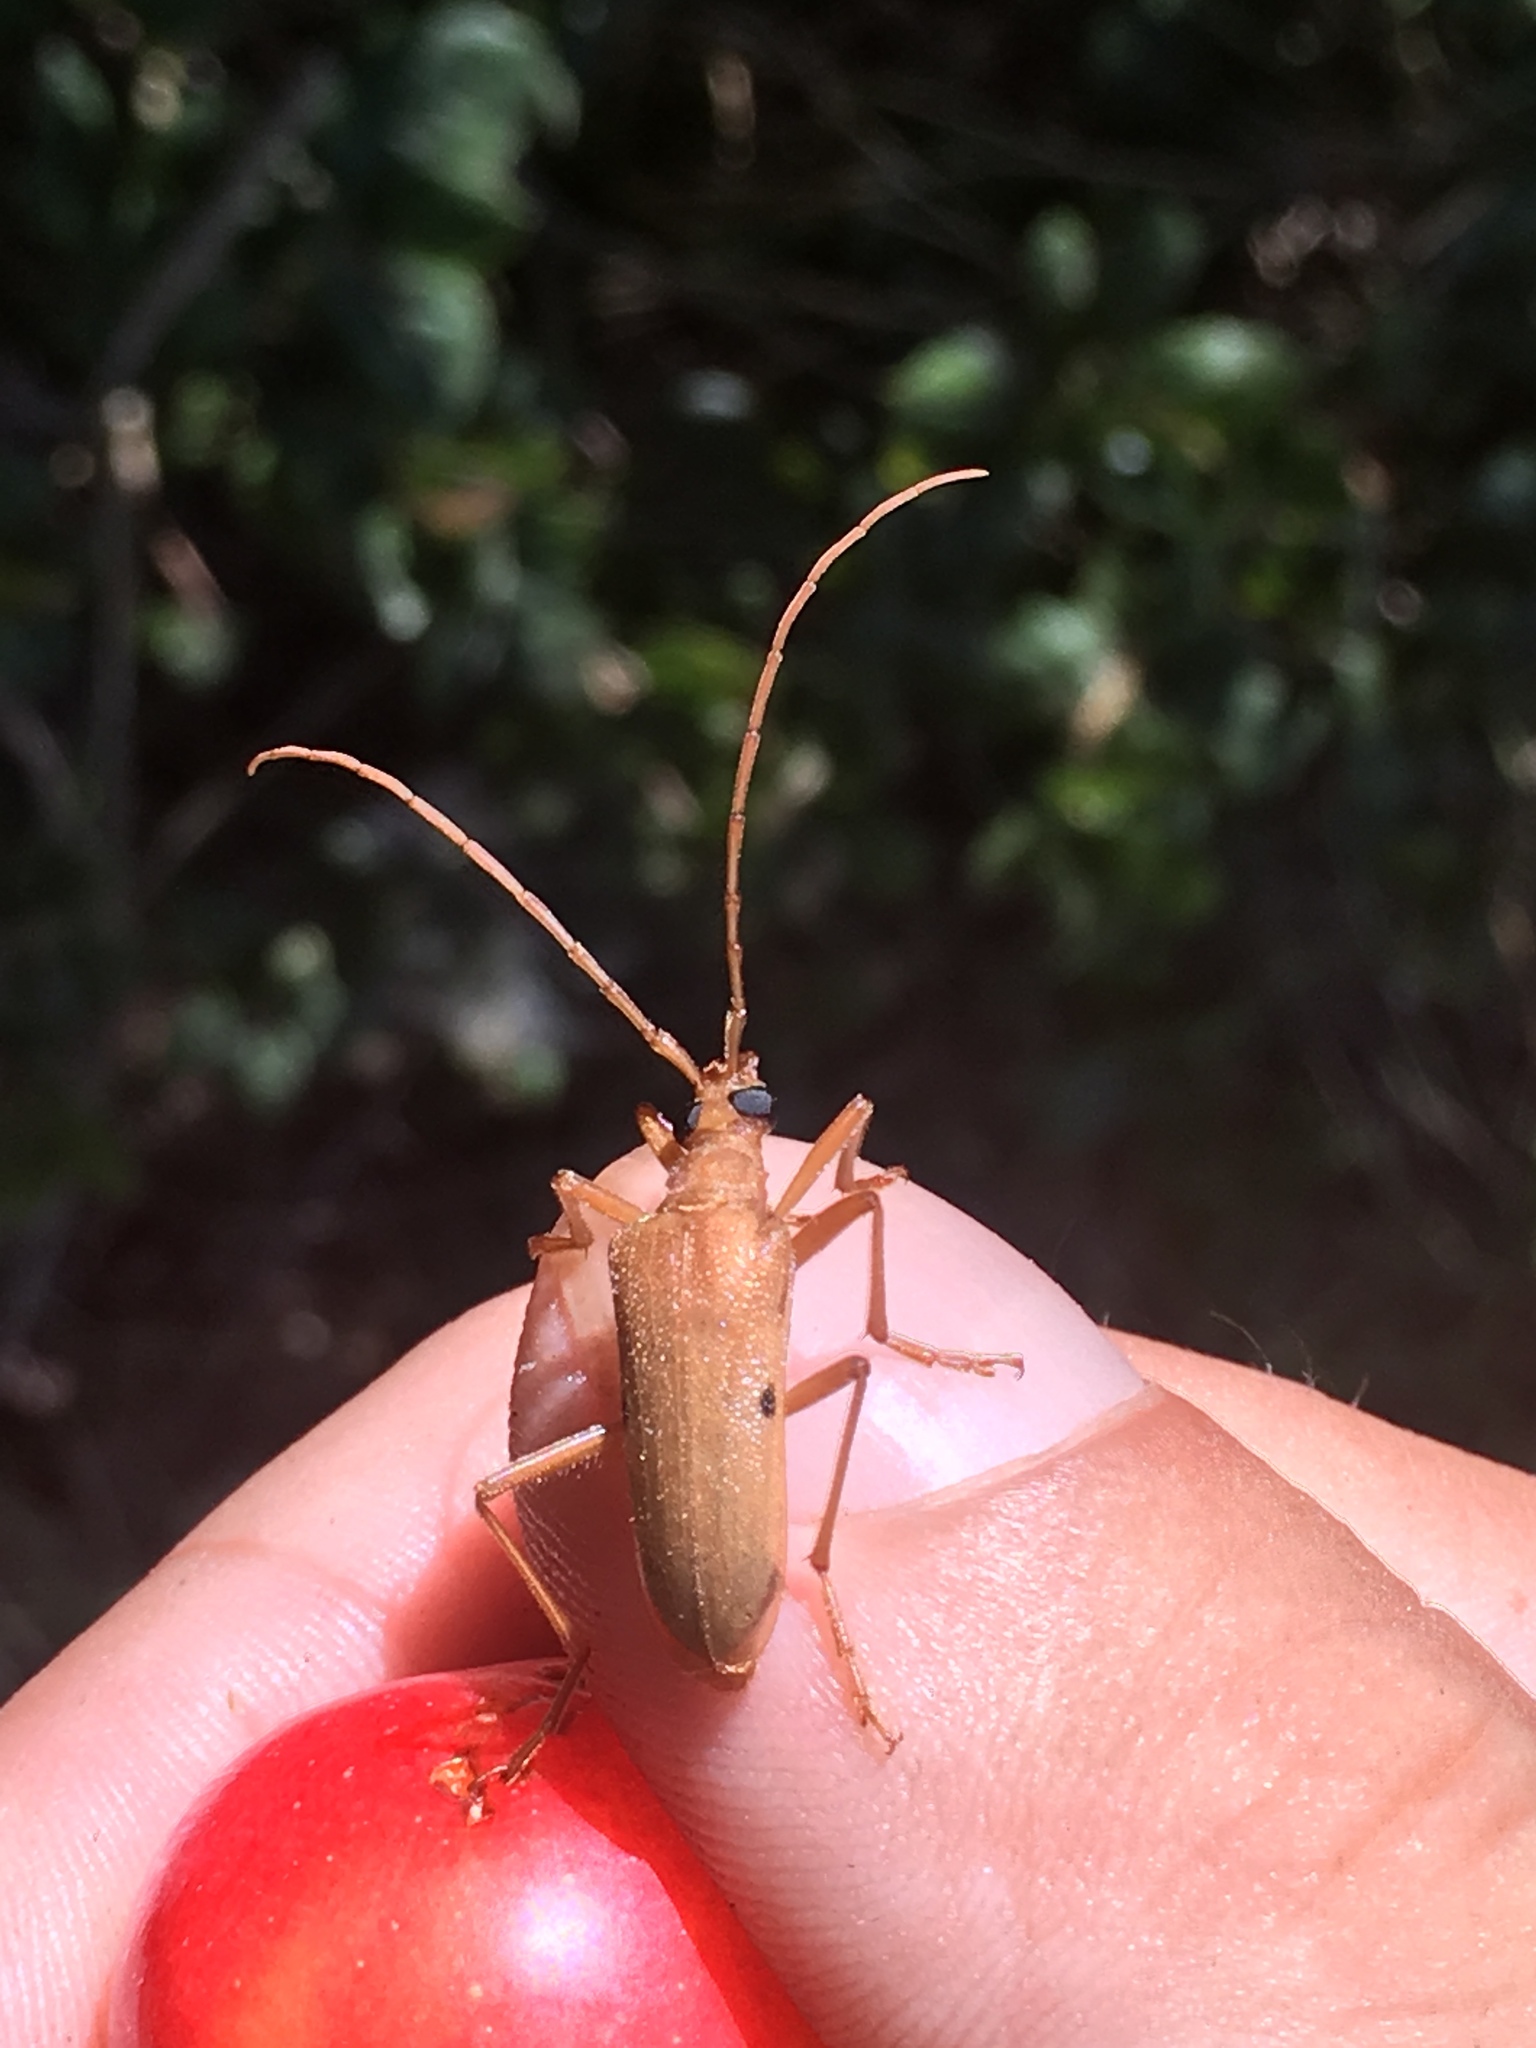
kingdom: Animalia
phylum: Arthropoda
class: Insecta
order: Coleoptera
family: Cerambycidae
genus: Centrodera
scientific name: Centrodera spurca
